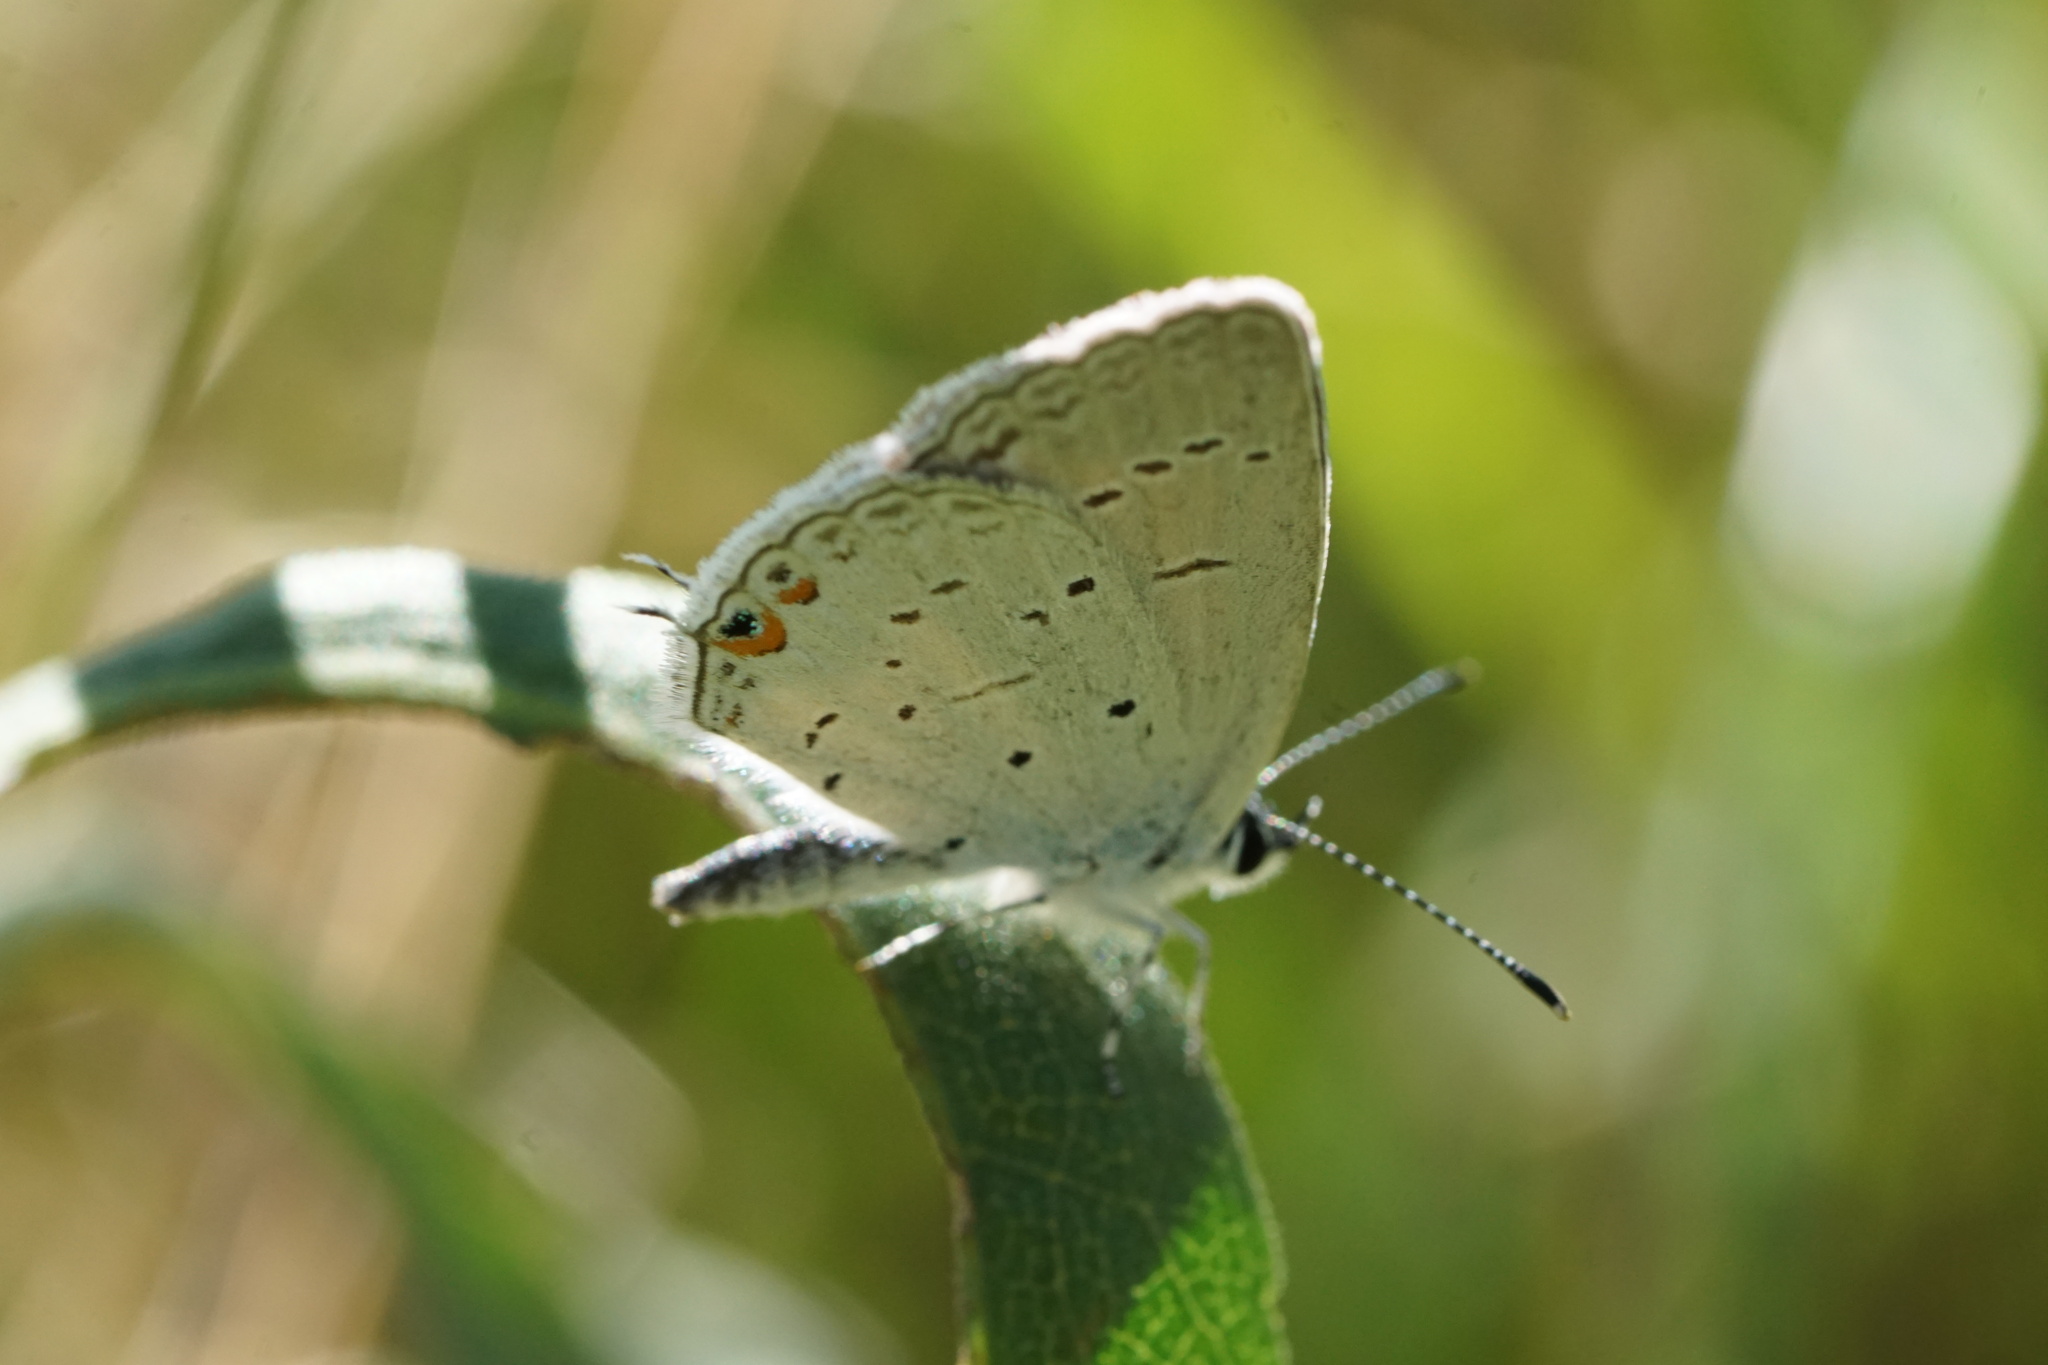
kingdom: Animalia
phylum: Arthropoda
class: Insecta
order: Lepidoptera
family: Lycaenidae
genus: Elkalyce
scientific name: Elkalyce comyntas
